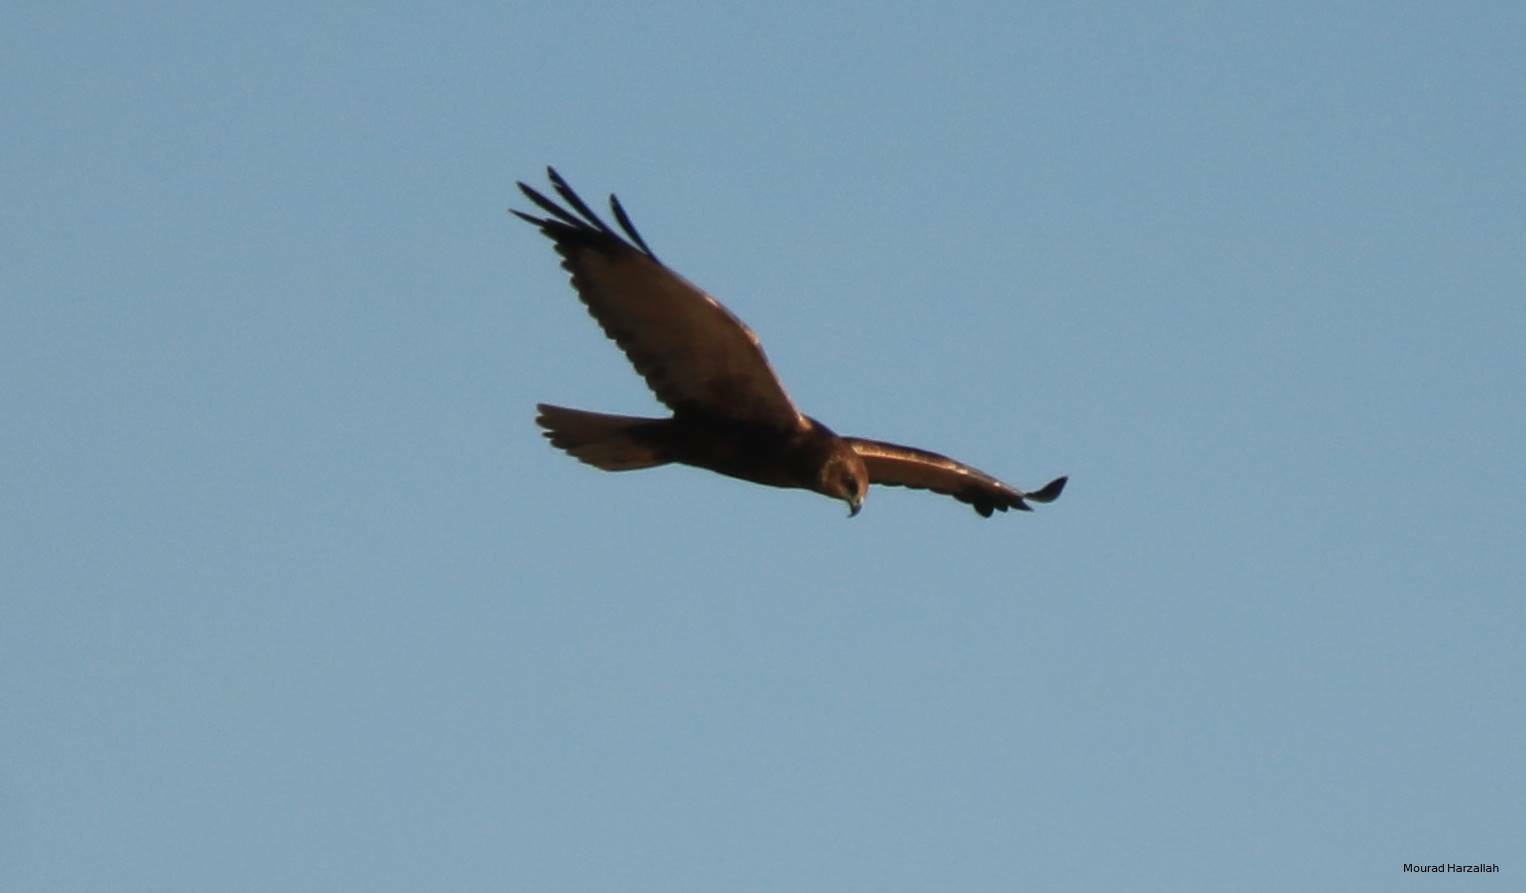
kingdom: Animalia
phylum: Chordata
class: Aves
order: Accipitriformes
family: Accipitridae
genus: Circus
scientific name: Circus aeruginosus
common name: Western marsh harrier
